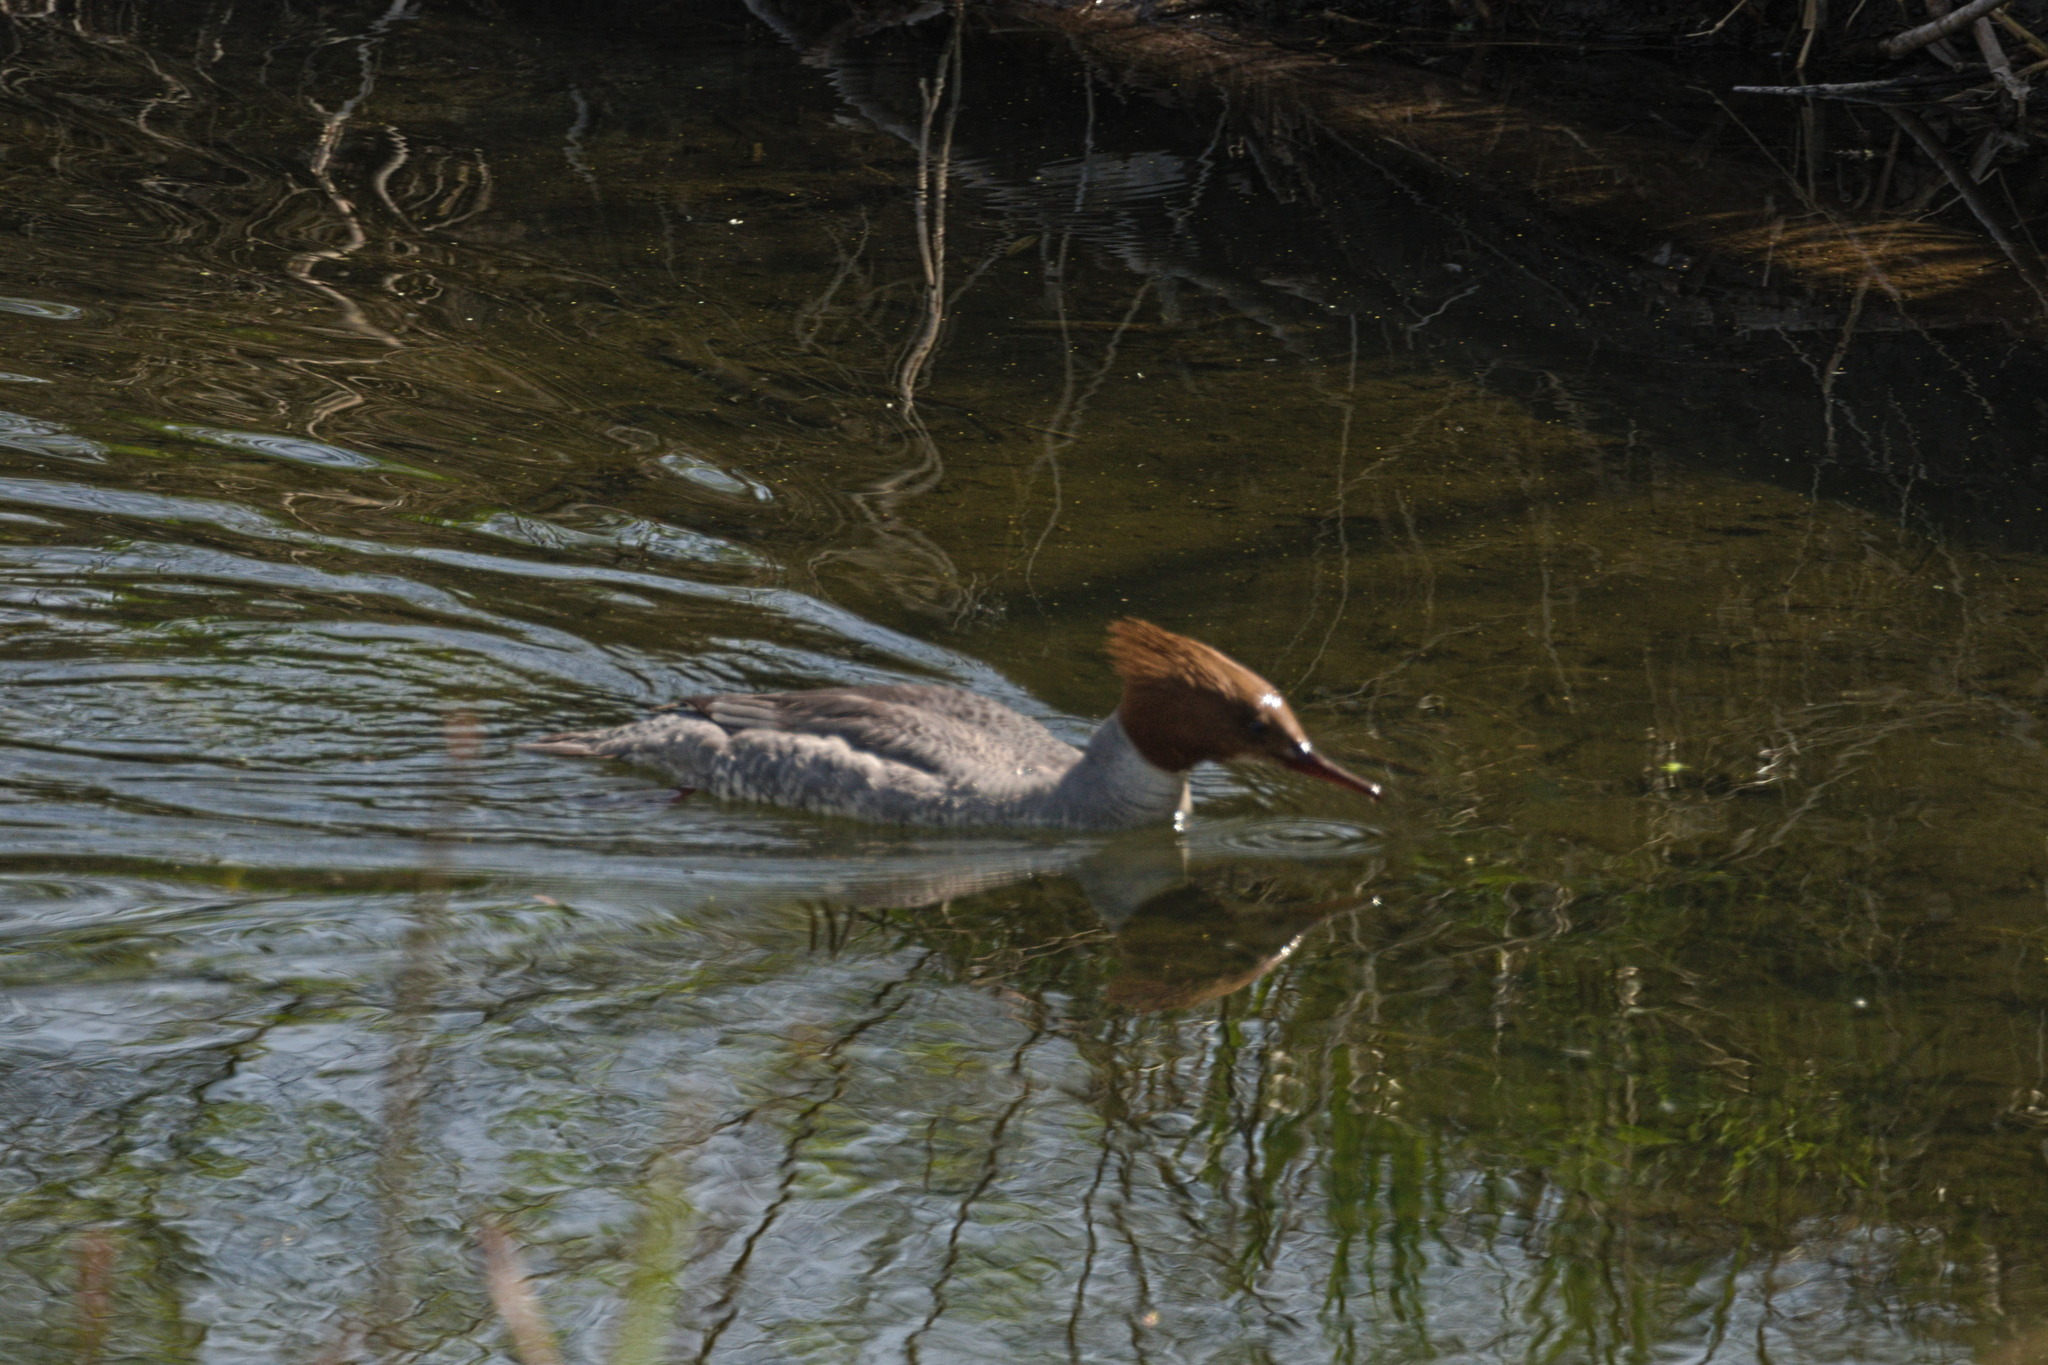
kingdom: Animalia
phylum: Chordata
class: Aves
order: Anseriformes
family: Anatidae
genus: Mergus
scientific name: Mergus merganser
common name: Common merganser
